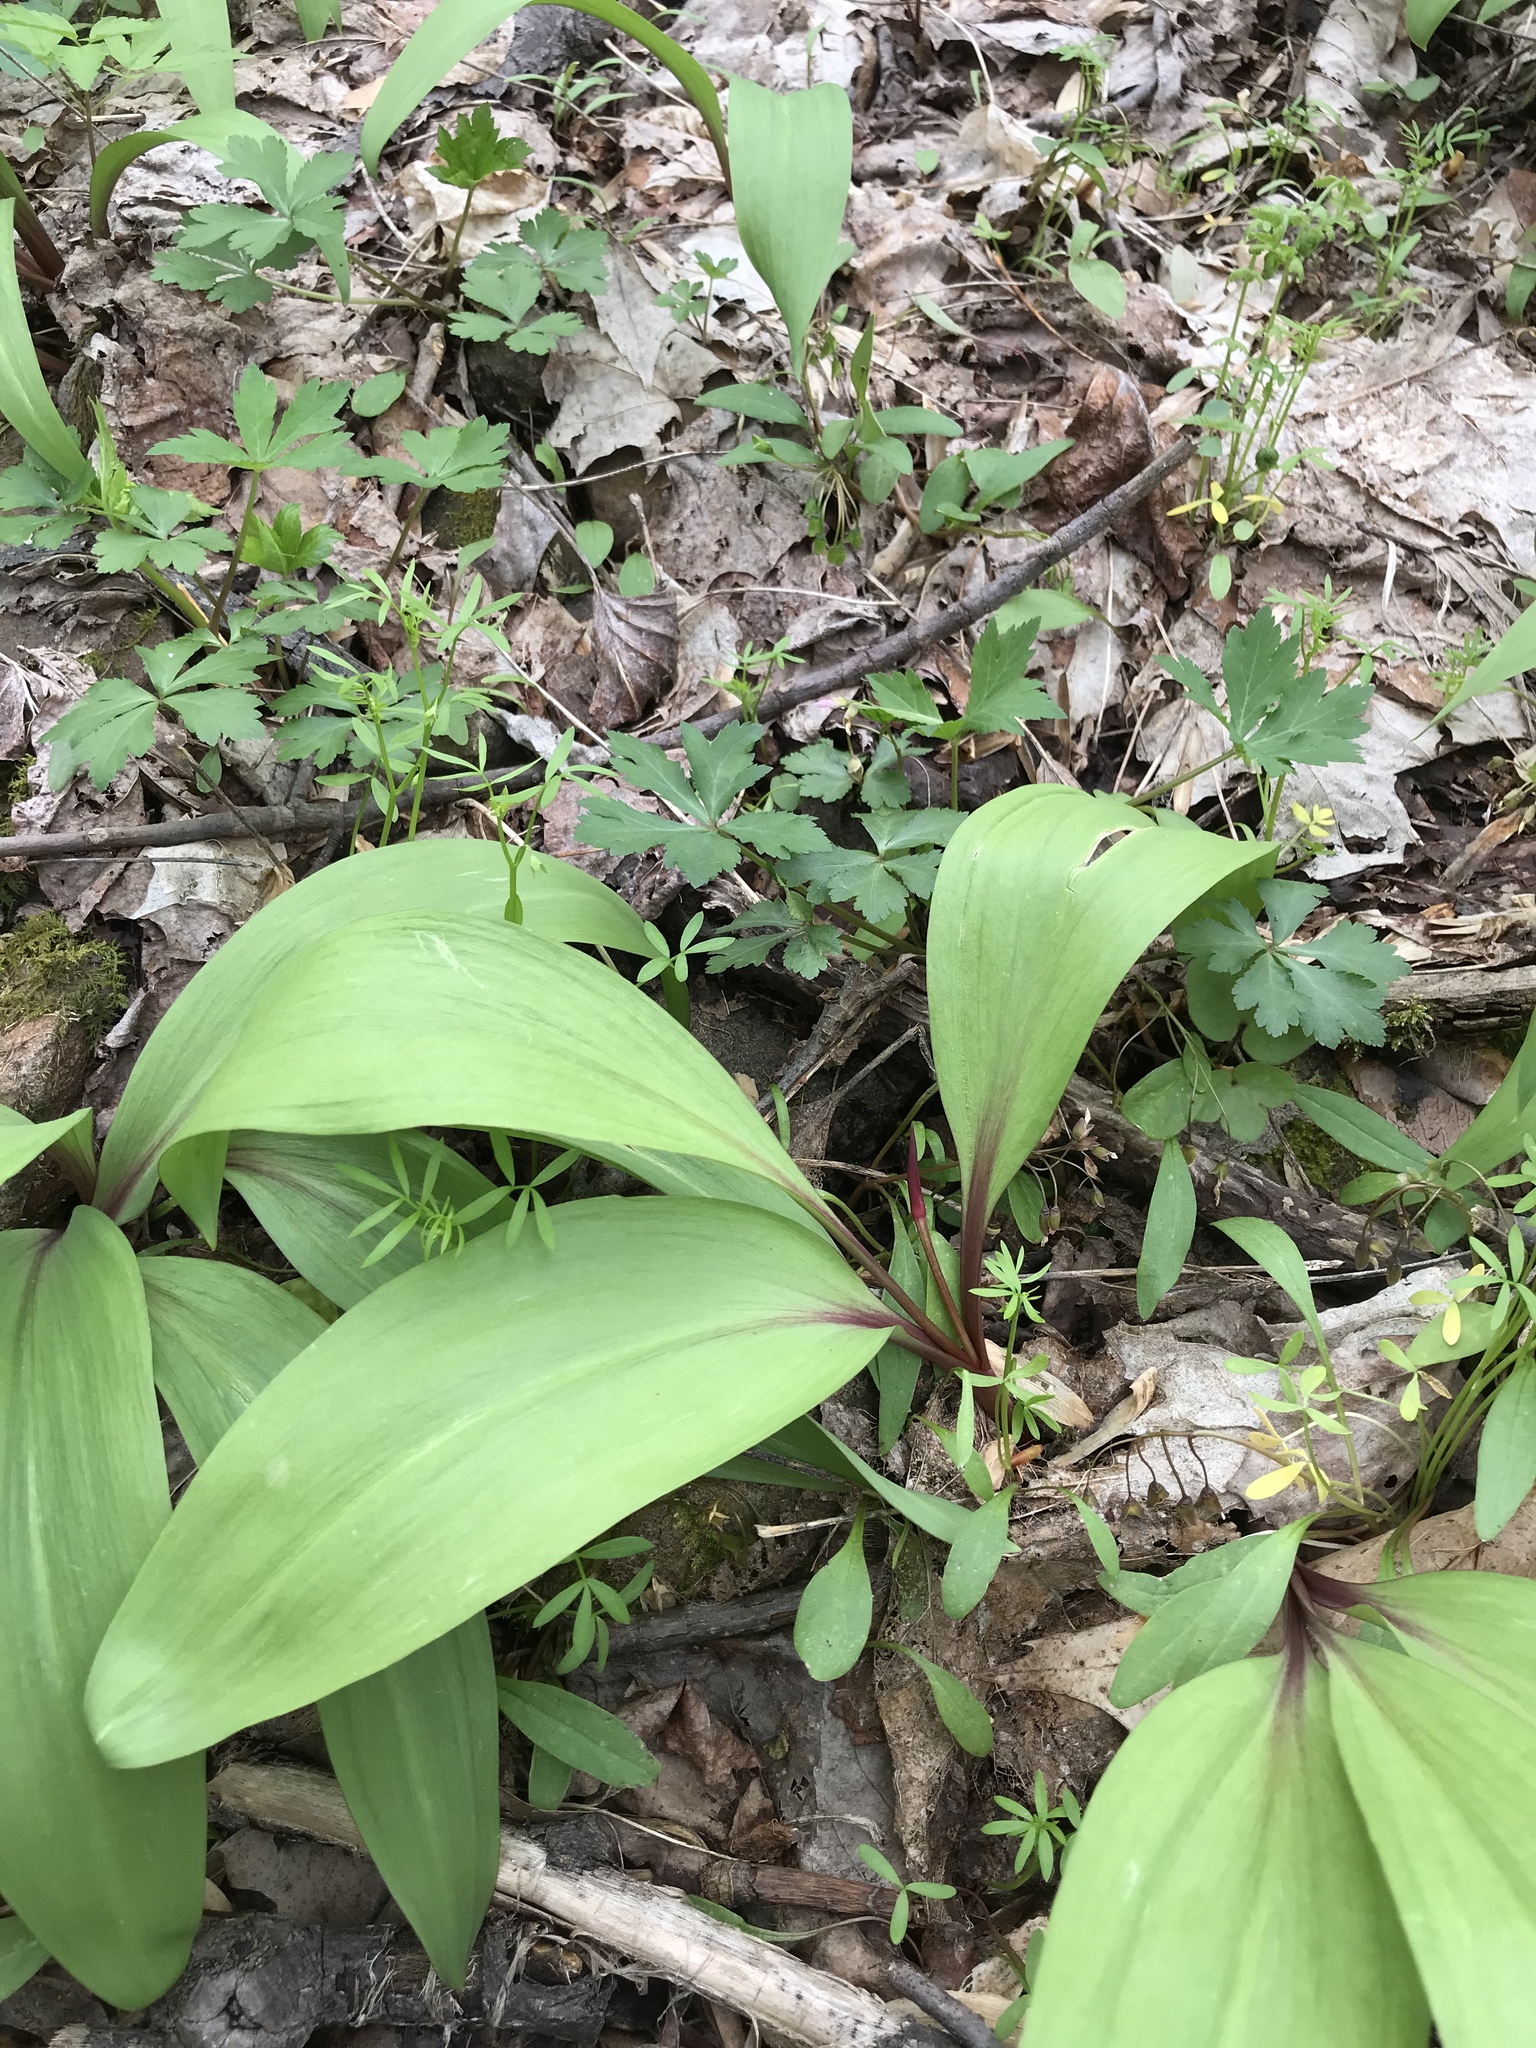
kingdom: Plantae
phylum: Tracheophyta
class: Liliopsida
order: Asparagales
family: Amaryllidaceae
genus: Allium
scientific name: Allium tricoccum
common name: Ramp
